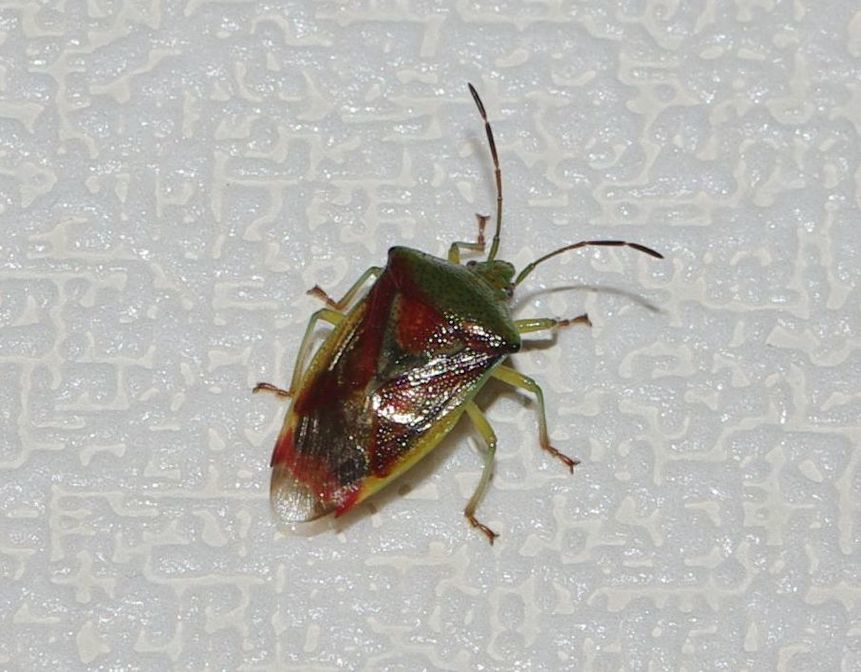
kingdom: Animalia
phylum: Arthropoda
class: Insecta
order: Hemiptera
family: Acanthosomatidae
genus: Elasmostethus
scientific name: Elasmostethus interstinctus
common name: Birch shieldbug
